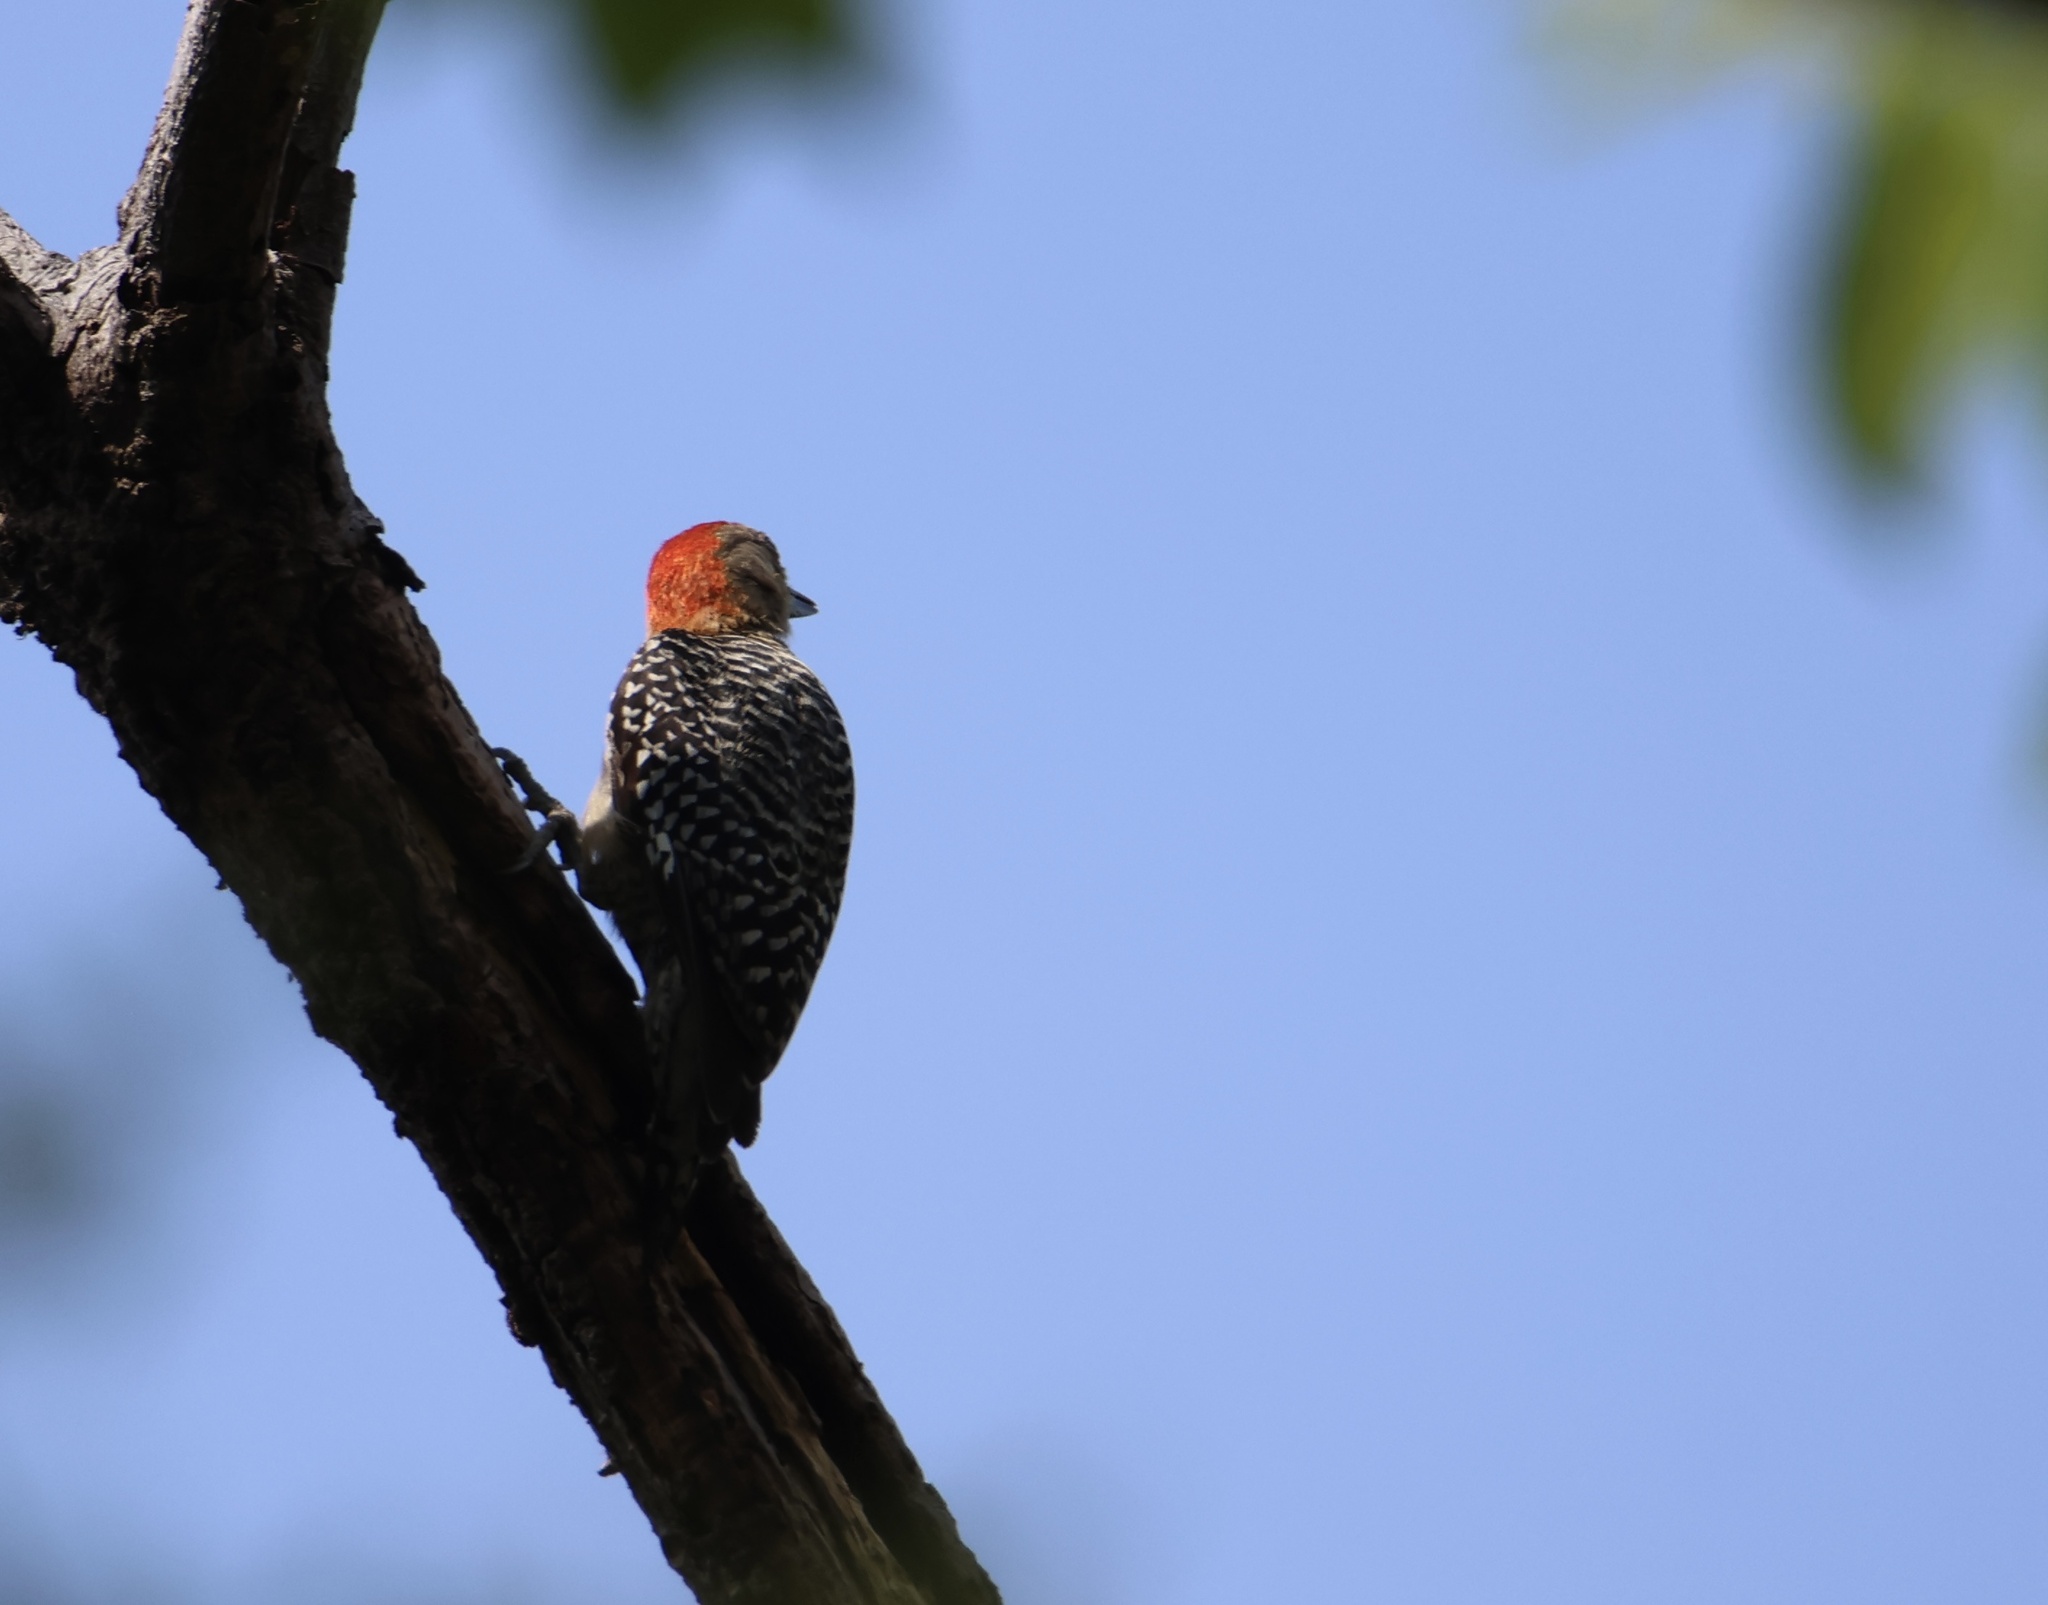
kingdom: Animalia
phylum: Chordata
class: Aves
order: Piciformes
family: Picidae
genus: Melanerpes
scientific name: Melanerpes rubricapillus
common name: Red-crowned woodpecker
